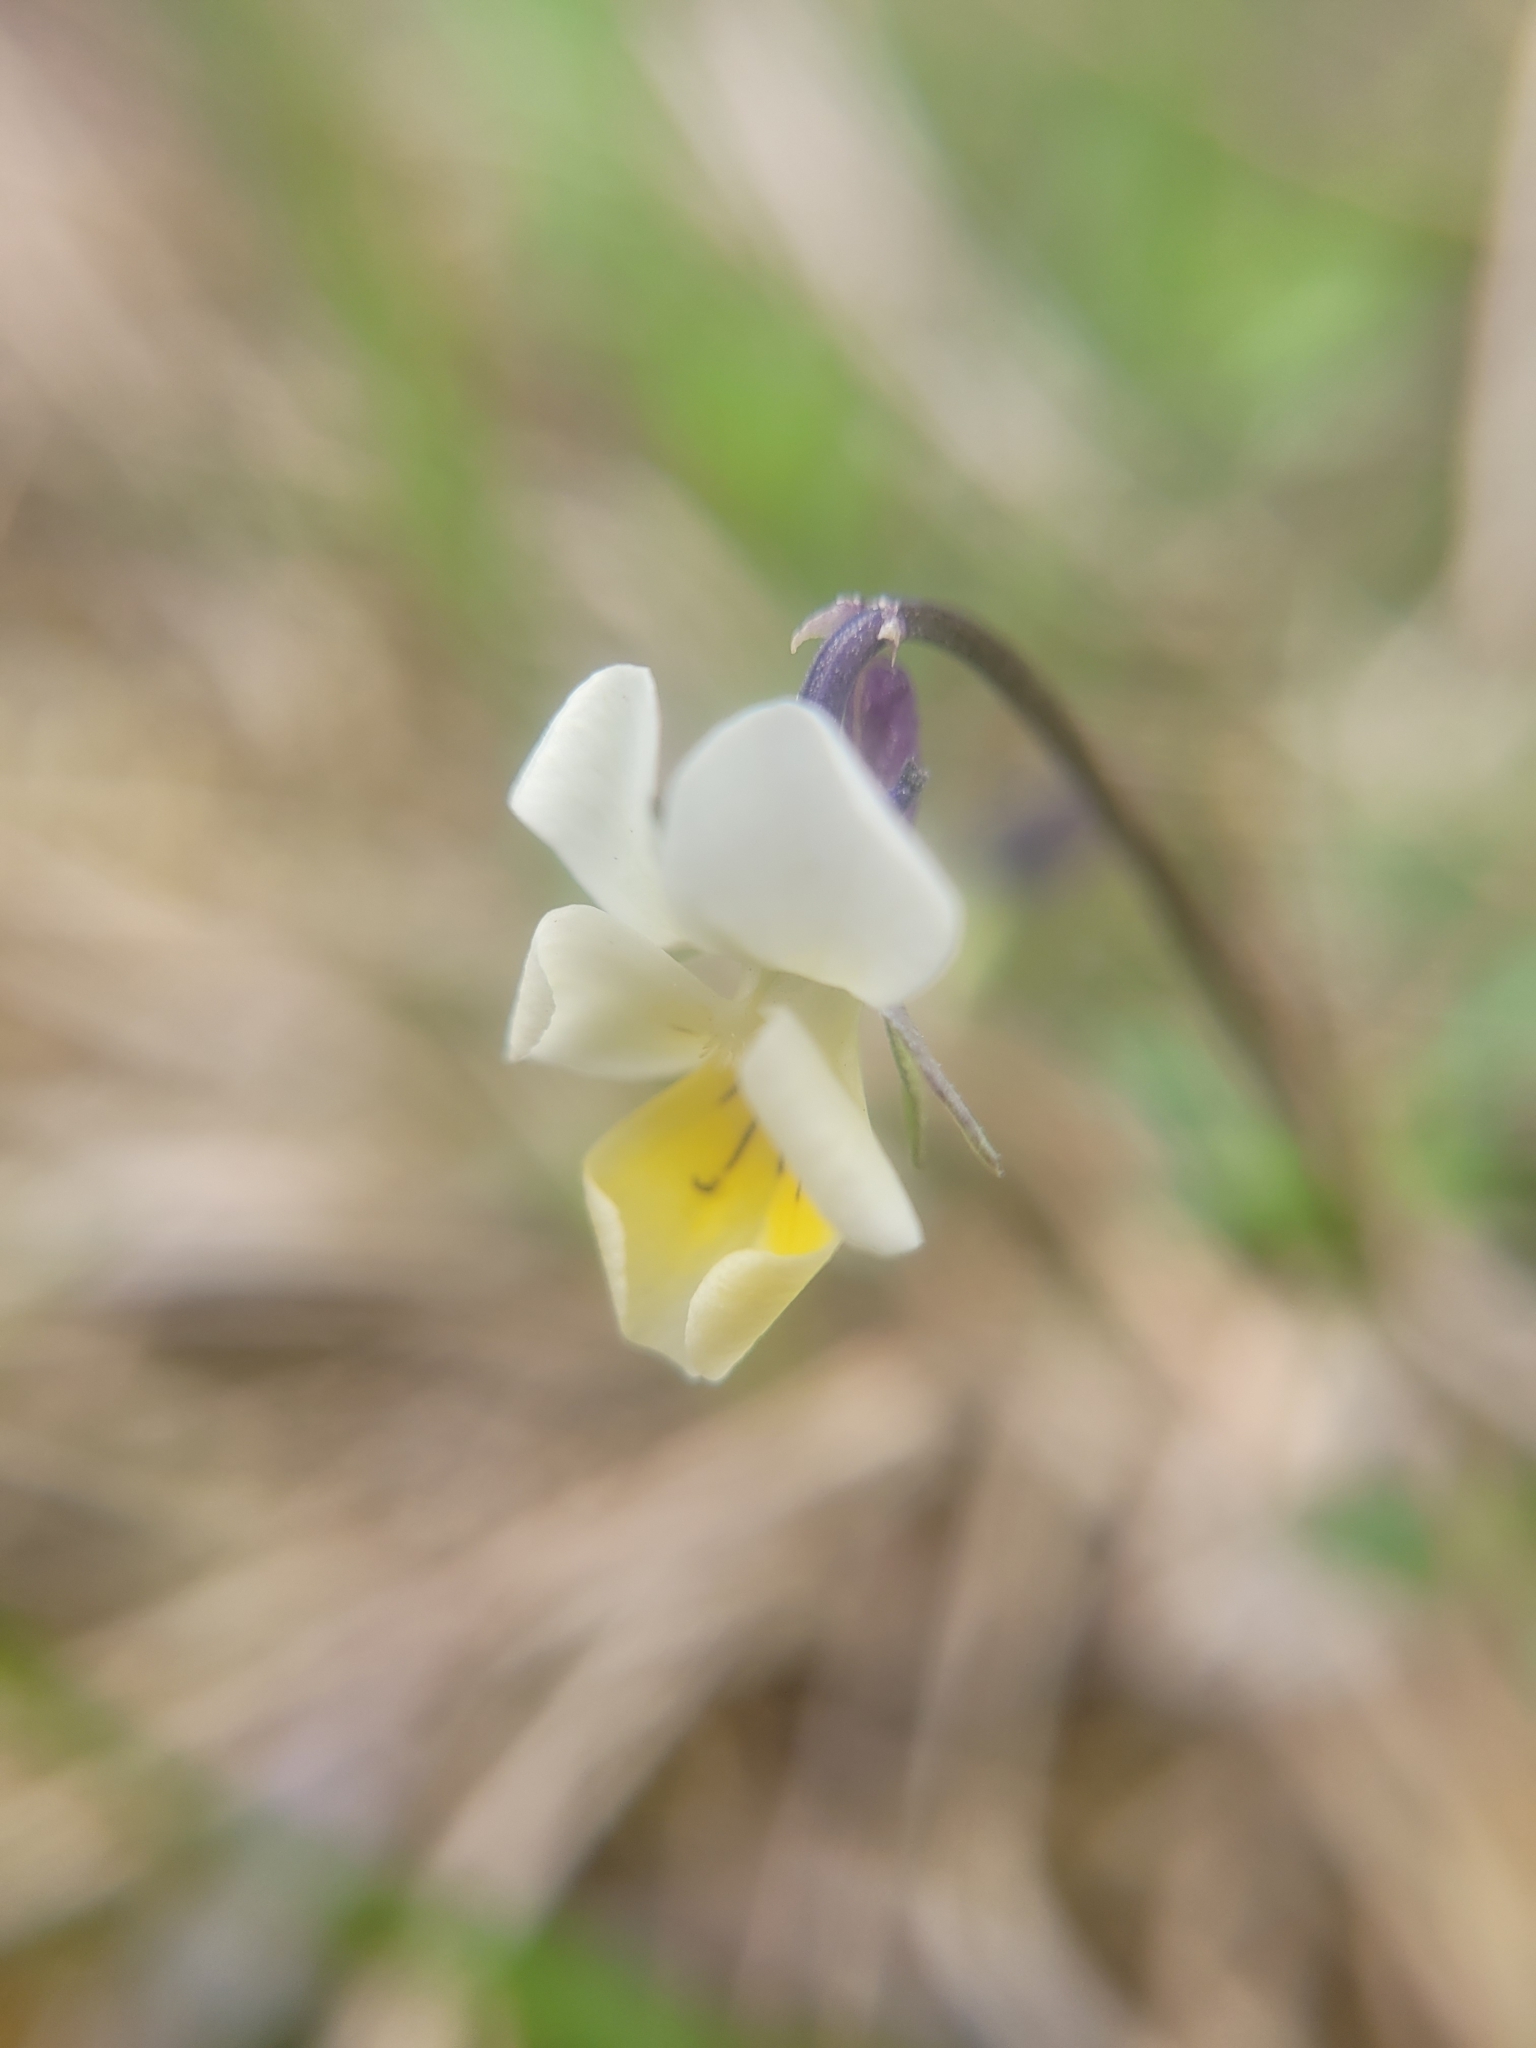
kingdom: Plantae
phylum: Tracheophyta
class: Magnoliopsida
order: Malpighiales
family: Violaceae
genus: Viola
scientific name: Viola arvensis
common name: Field pansy
